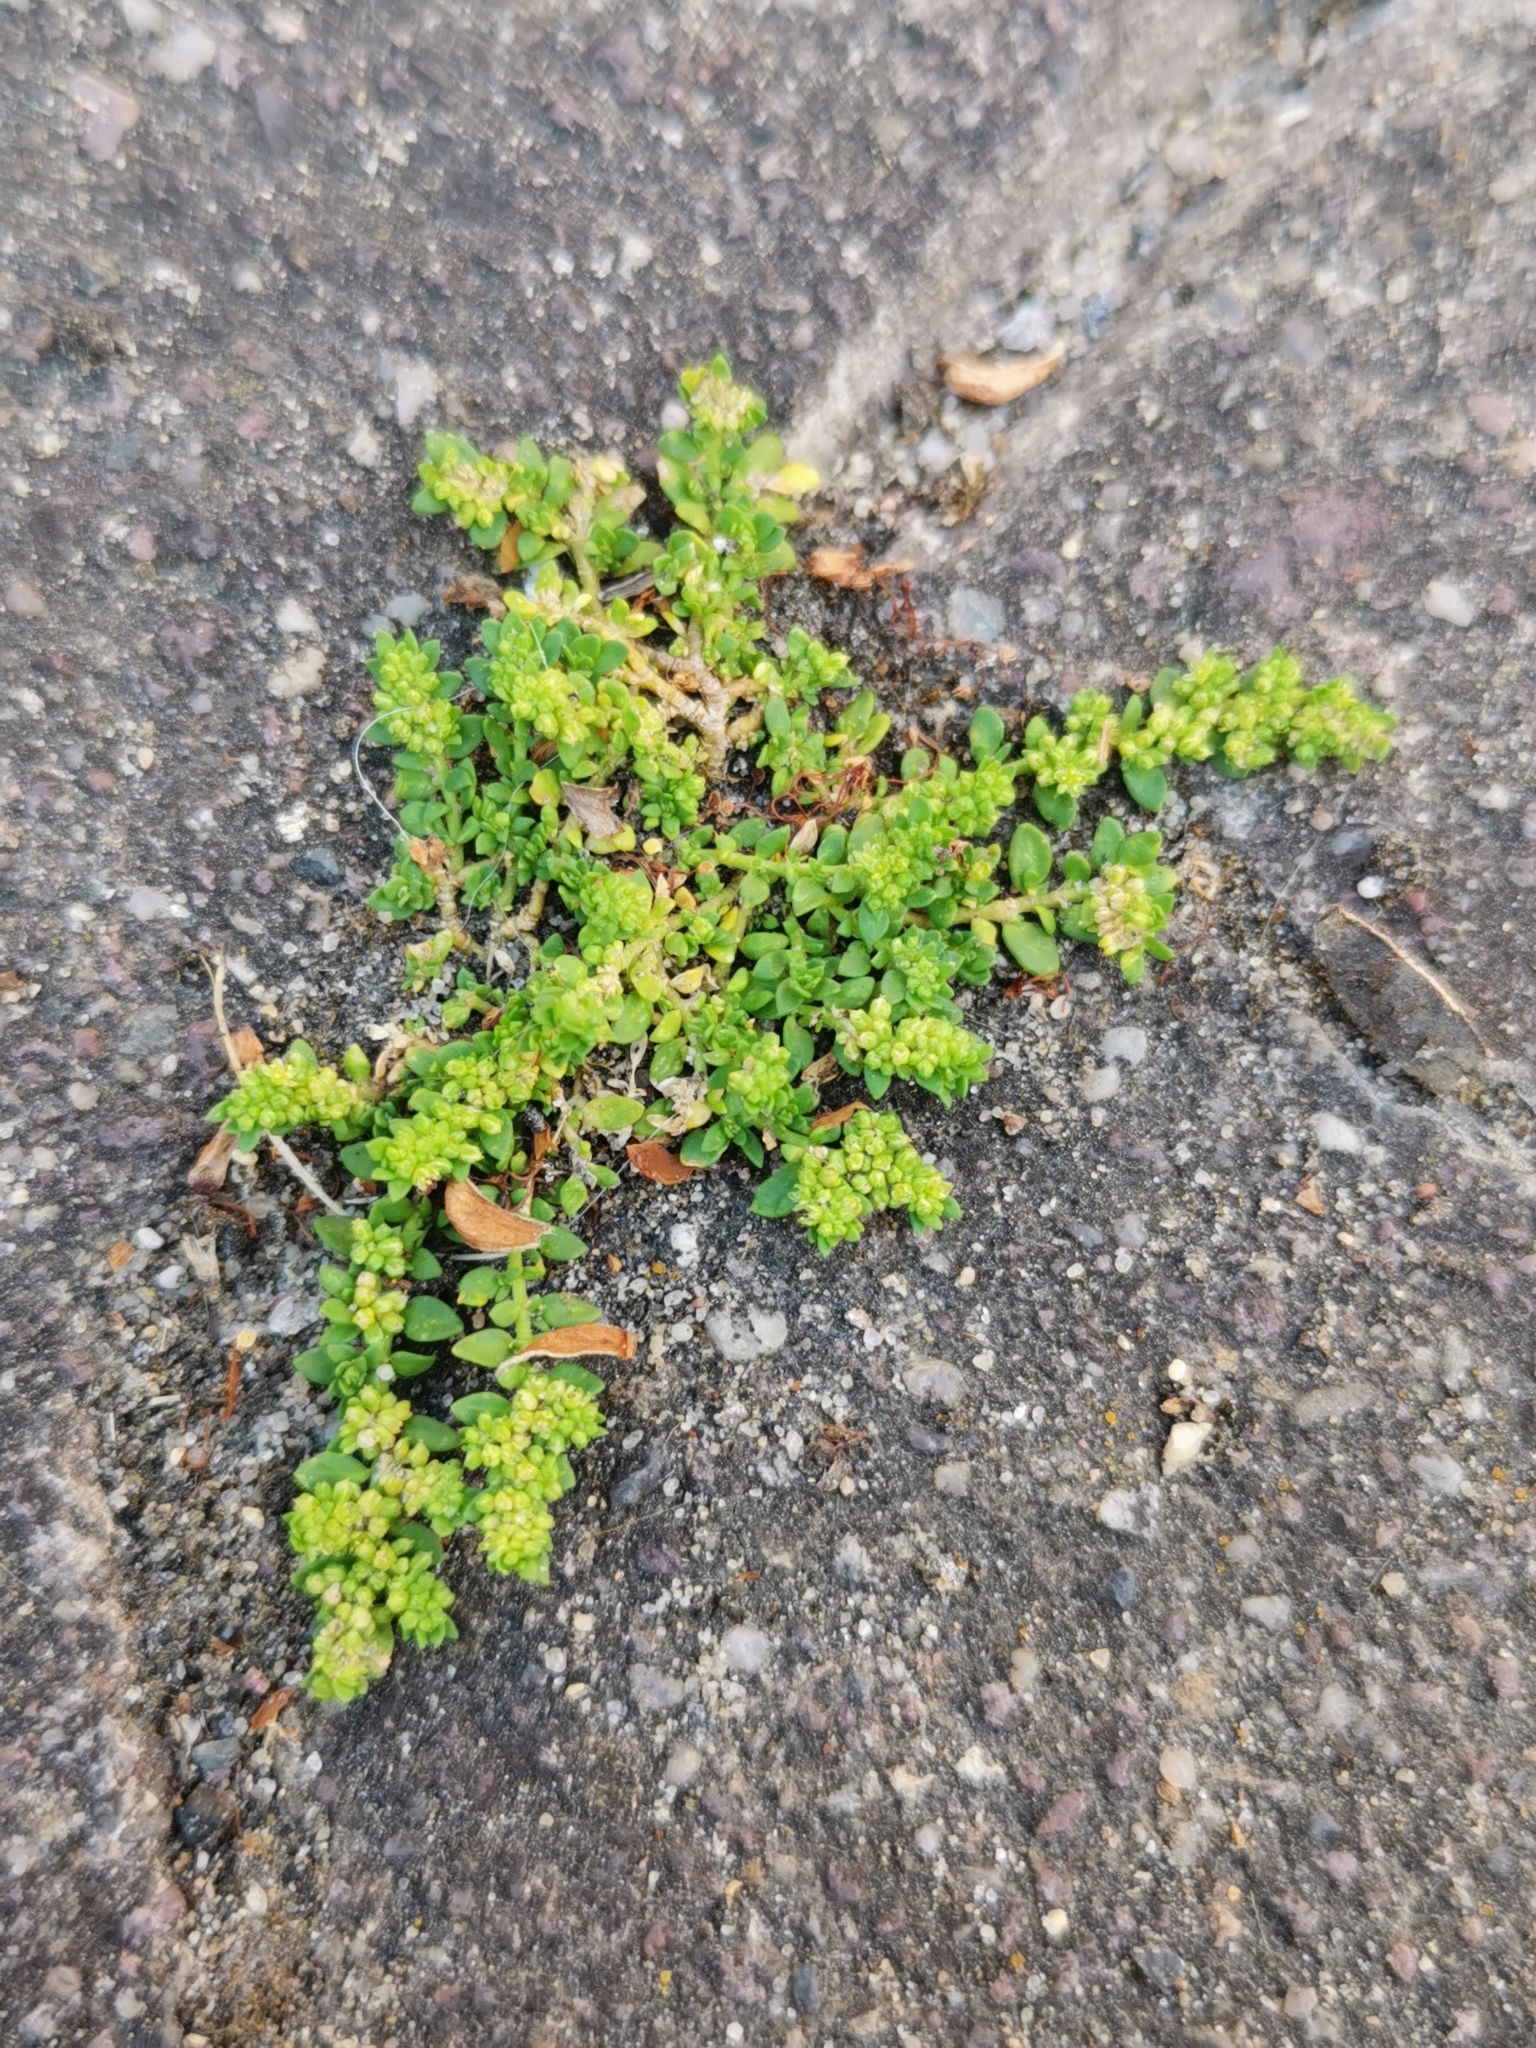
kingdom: Plantae
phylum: Tracheophyta
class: Magnoliopsida
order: Caryophyllales
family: Caryophyllaceae
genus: Herniaria
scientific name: Herniaria glabra
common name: Smooth rupturewort
